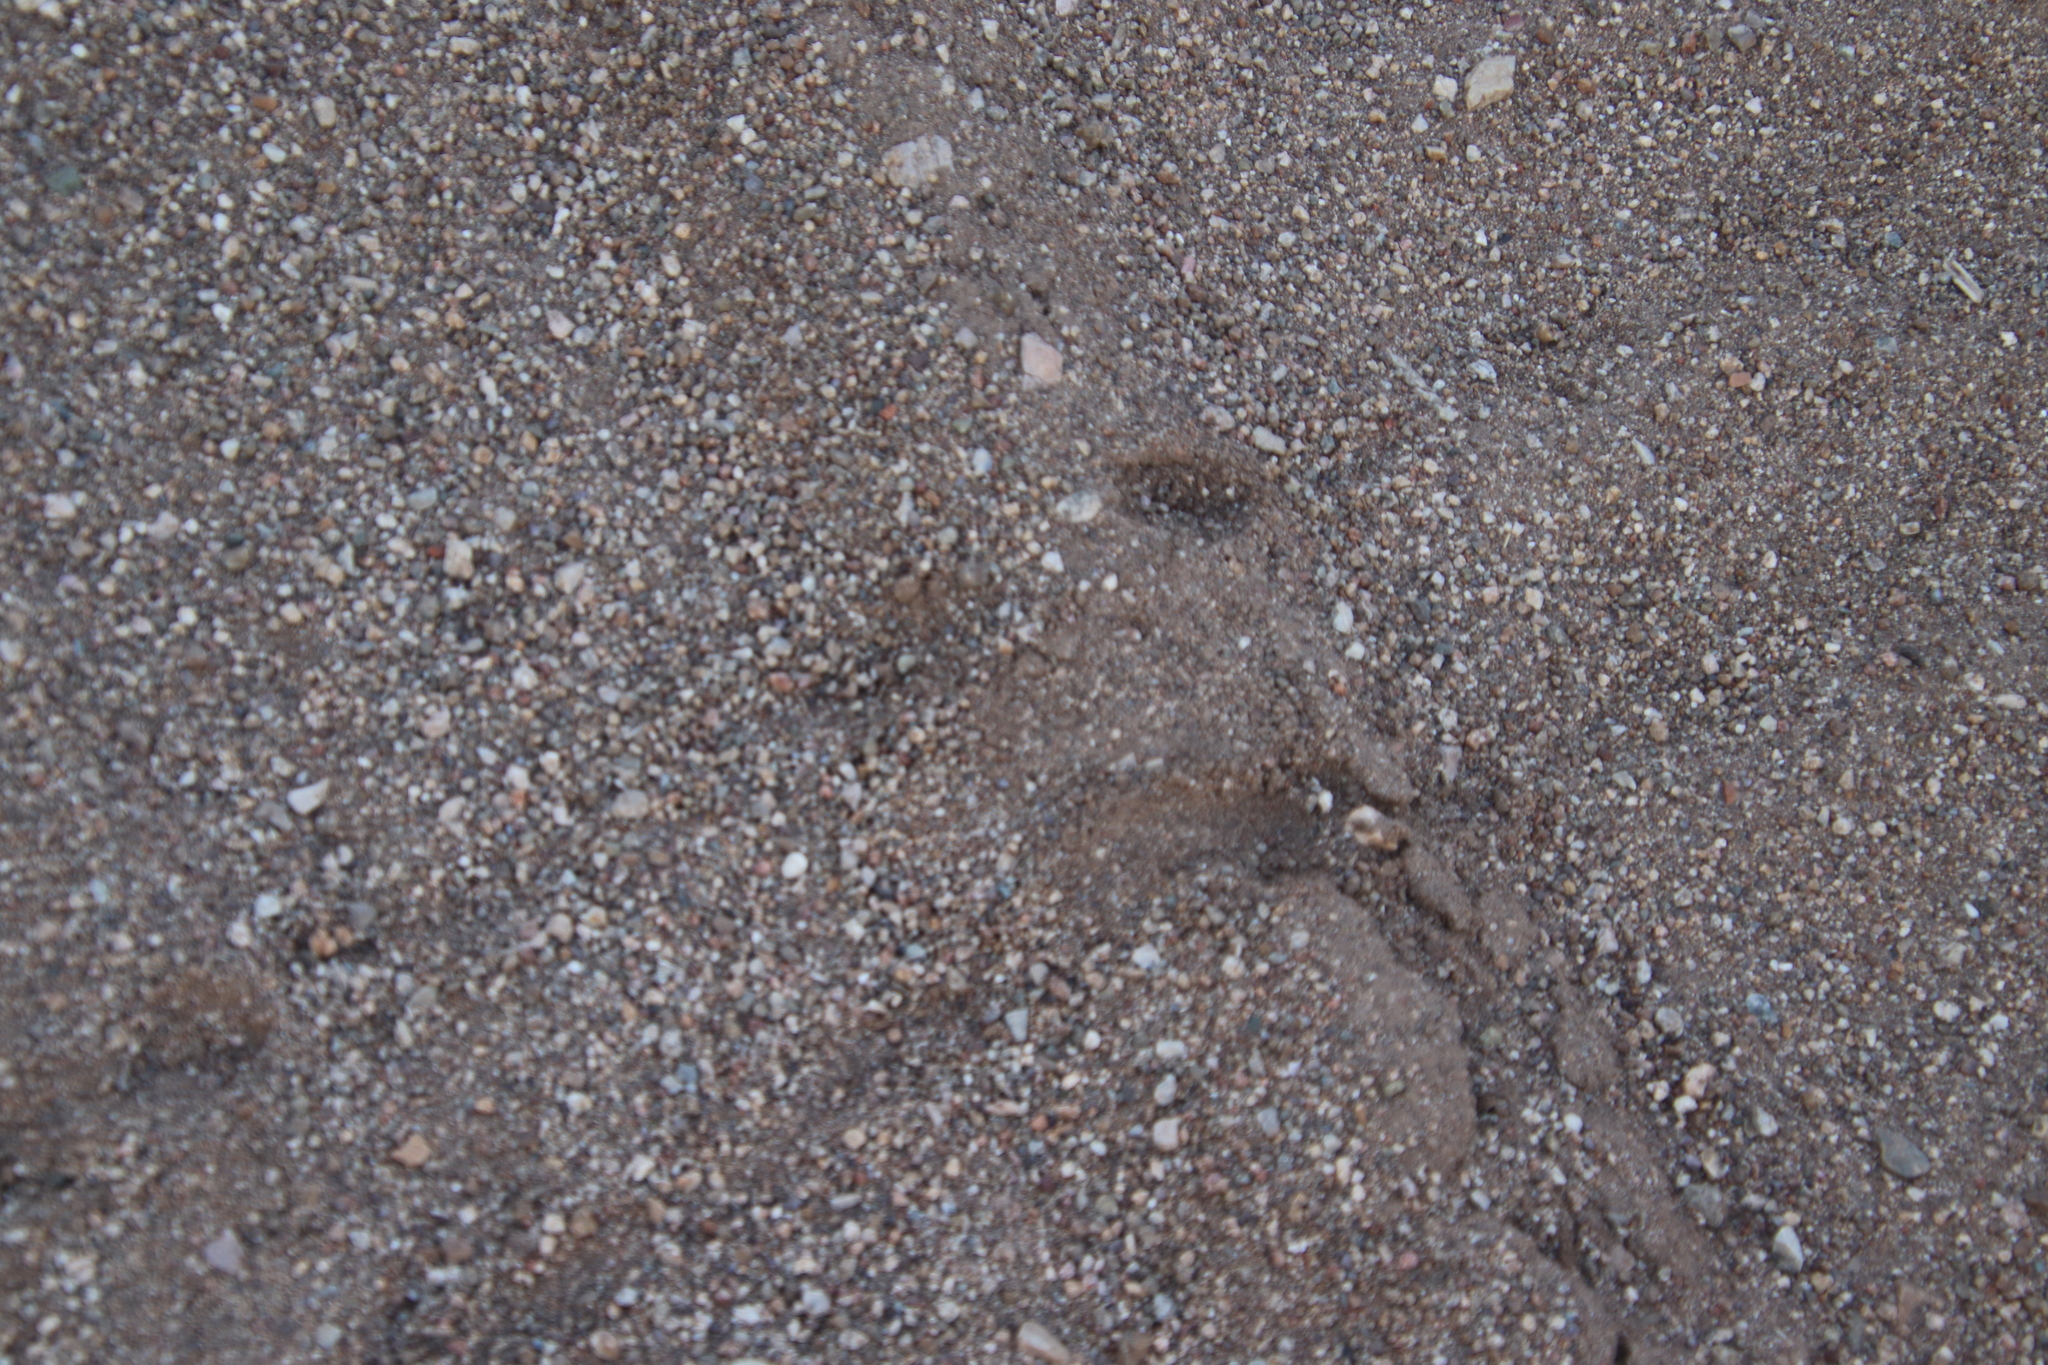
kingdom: Animalia
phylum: Chordata
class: Testudines
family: Emydidae
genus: Terrapene
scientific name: Terrapene ornata
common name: Western box turtle
